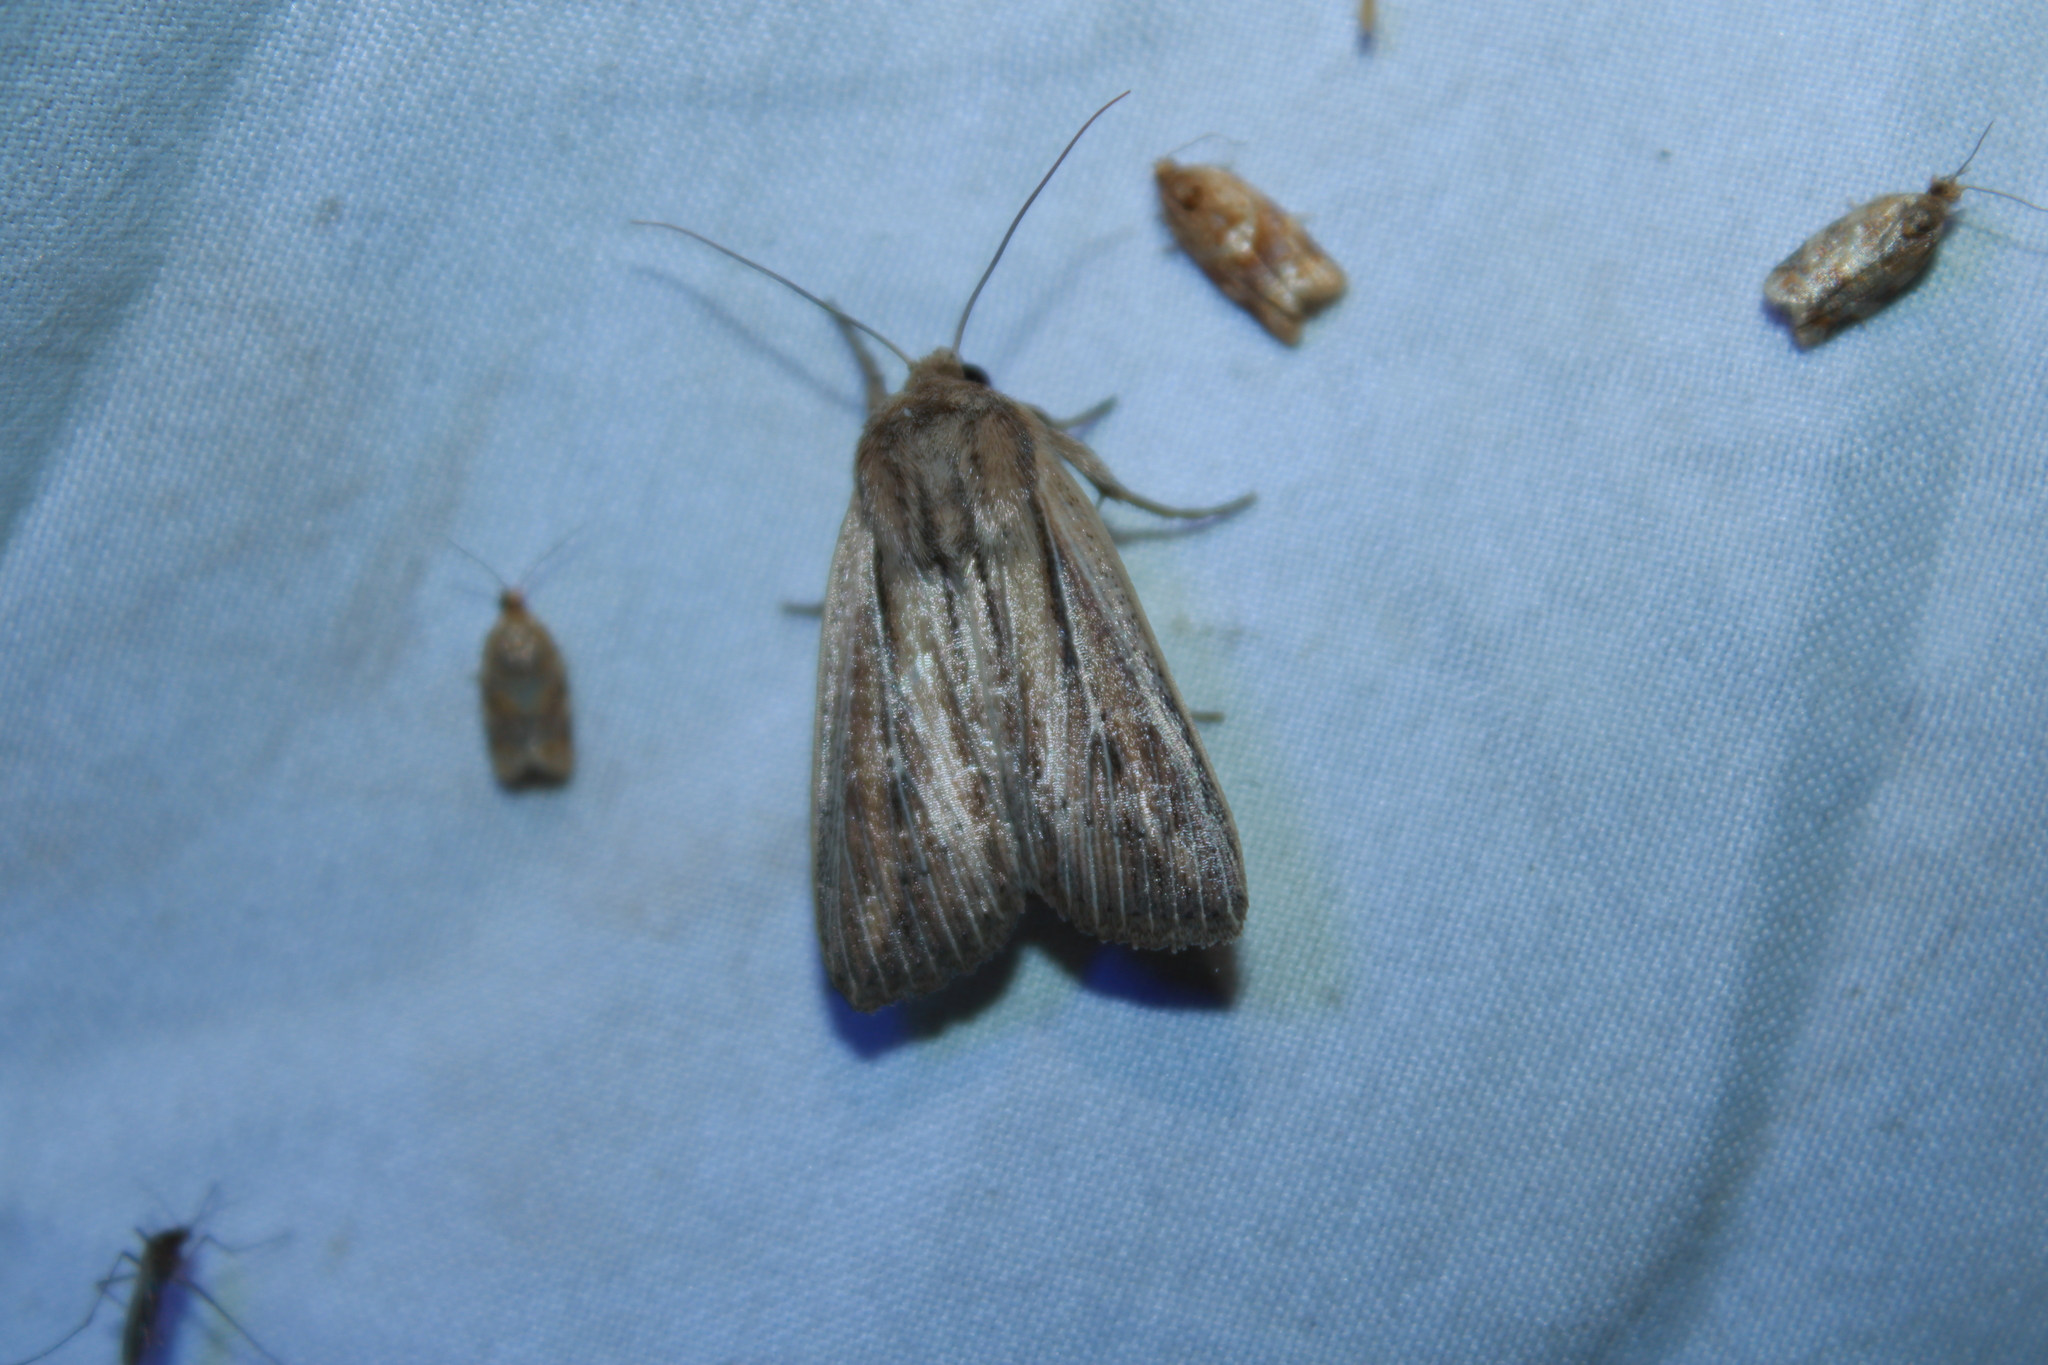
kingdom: Animalia
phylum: Arthropoda
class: Insecta
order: Lepidoptera
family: Noctuidae
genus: Leucania
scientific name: Leucania commoides
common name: Two-lined wainscot
